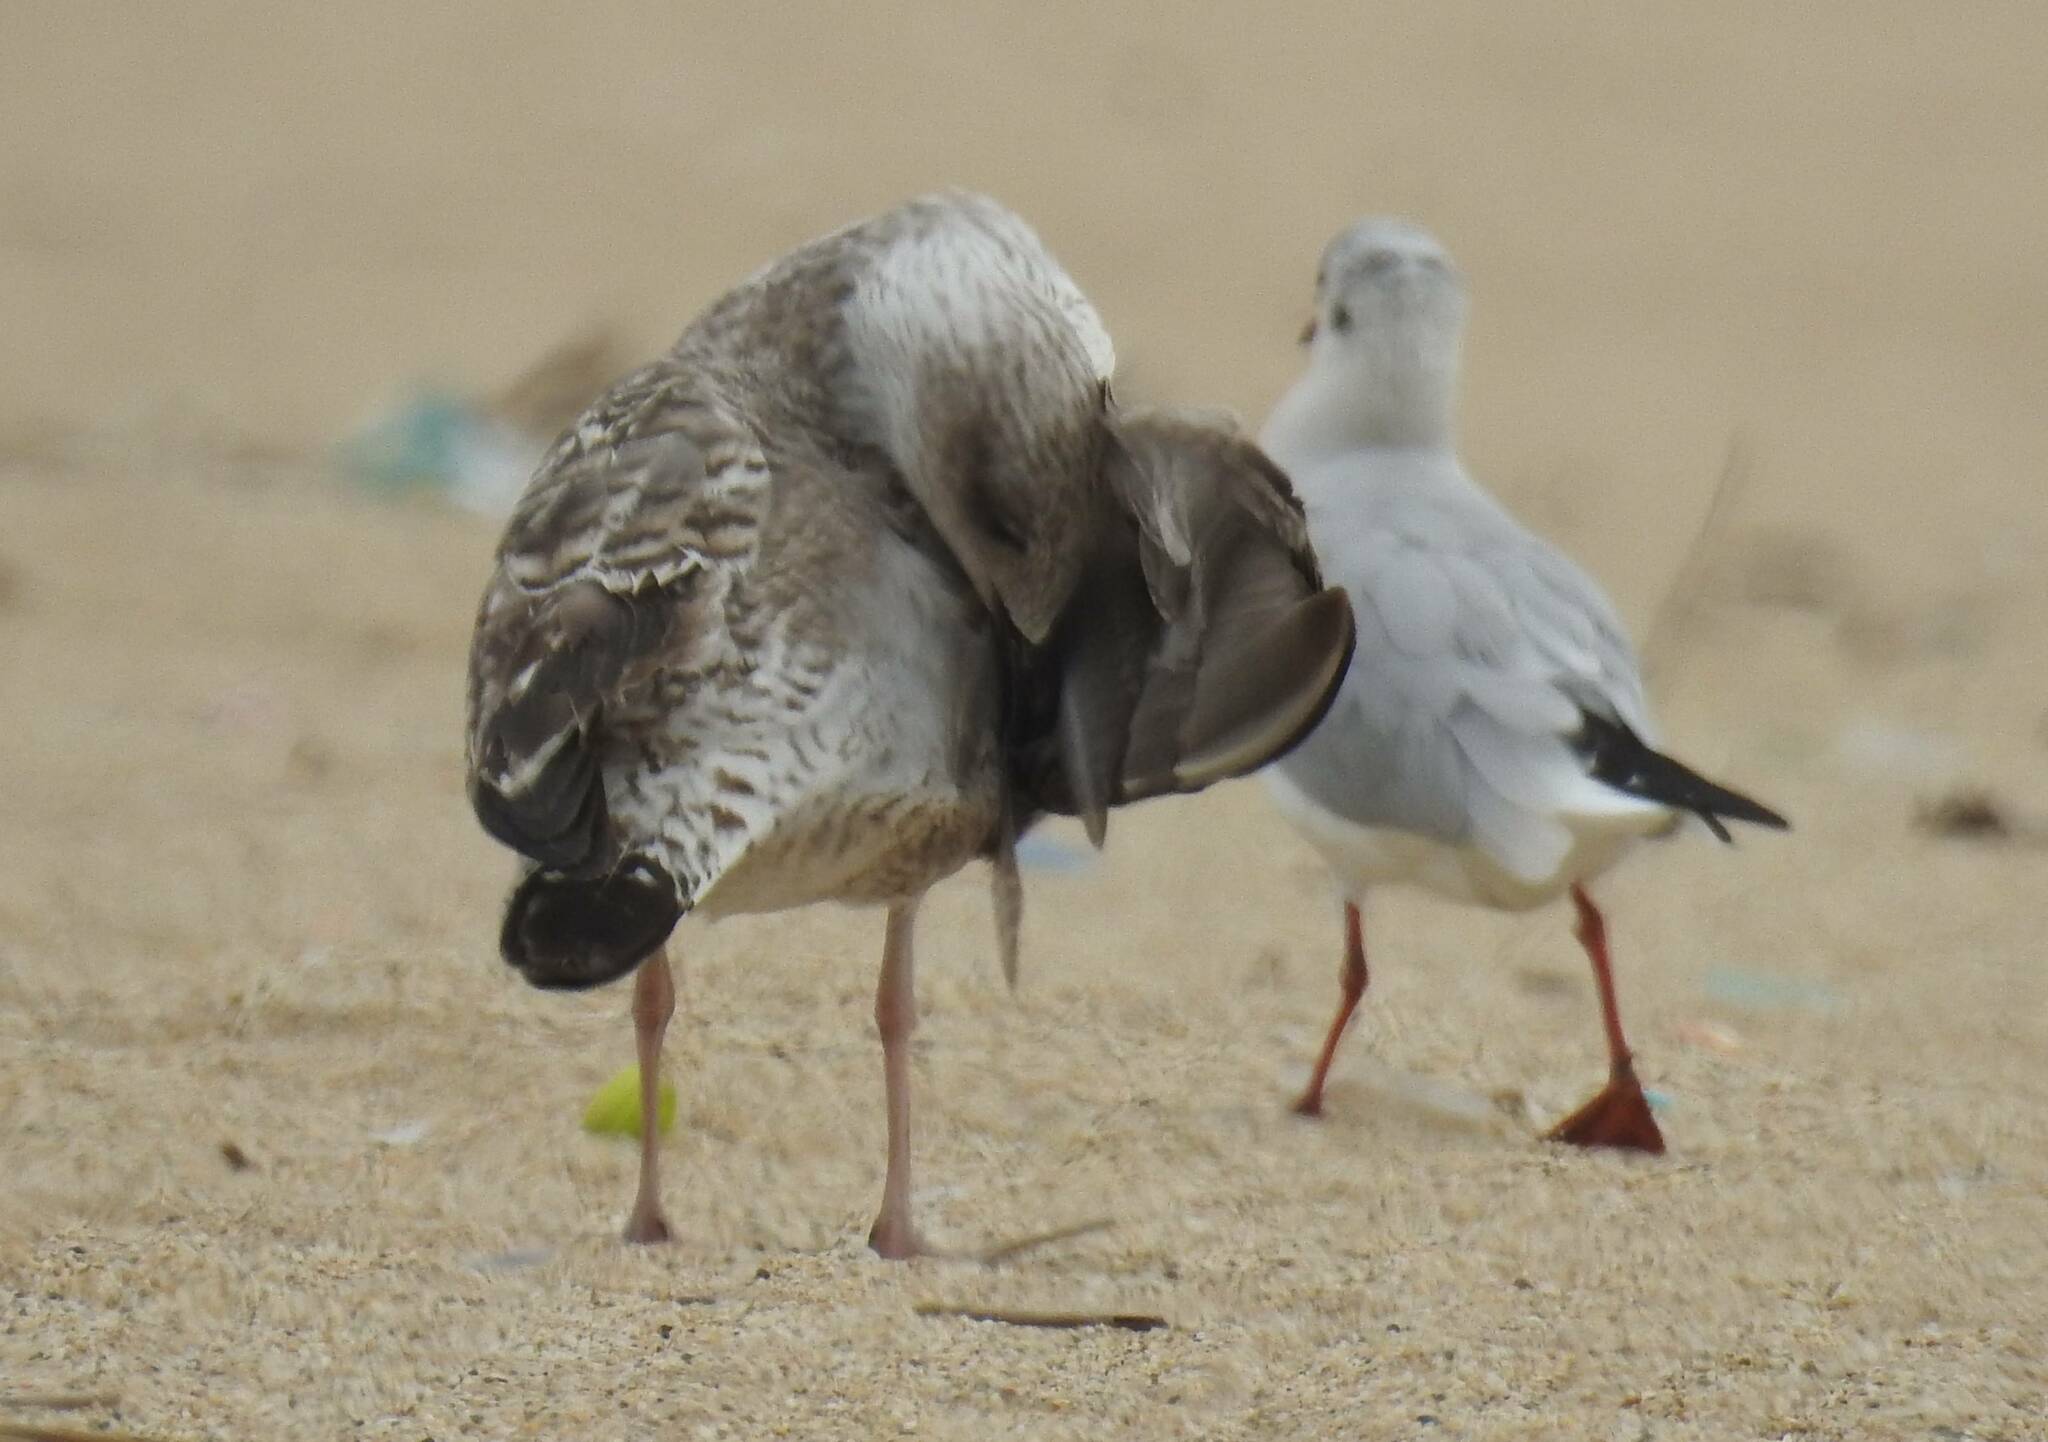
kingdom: Animalia
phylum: Chordata
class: Aves
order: Charadriiformes
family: Laridae
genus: Larus
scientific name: Larus michahellis
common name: Yellow-legged gull
